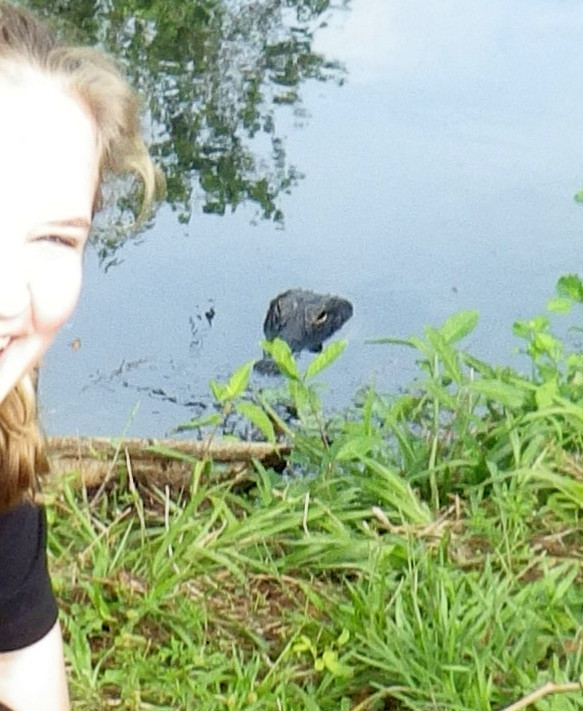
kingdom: Animalia
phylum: Chordata
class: Crocodylia
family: Alligatoridae
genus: Alligator
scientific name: Alligator mississippiensis
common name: American alligator
